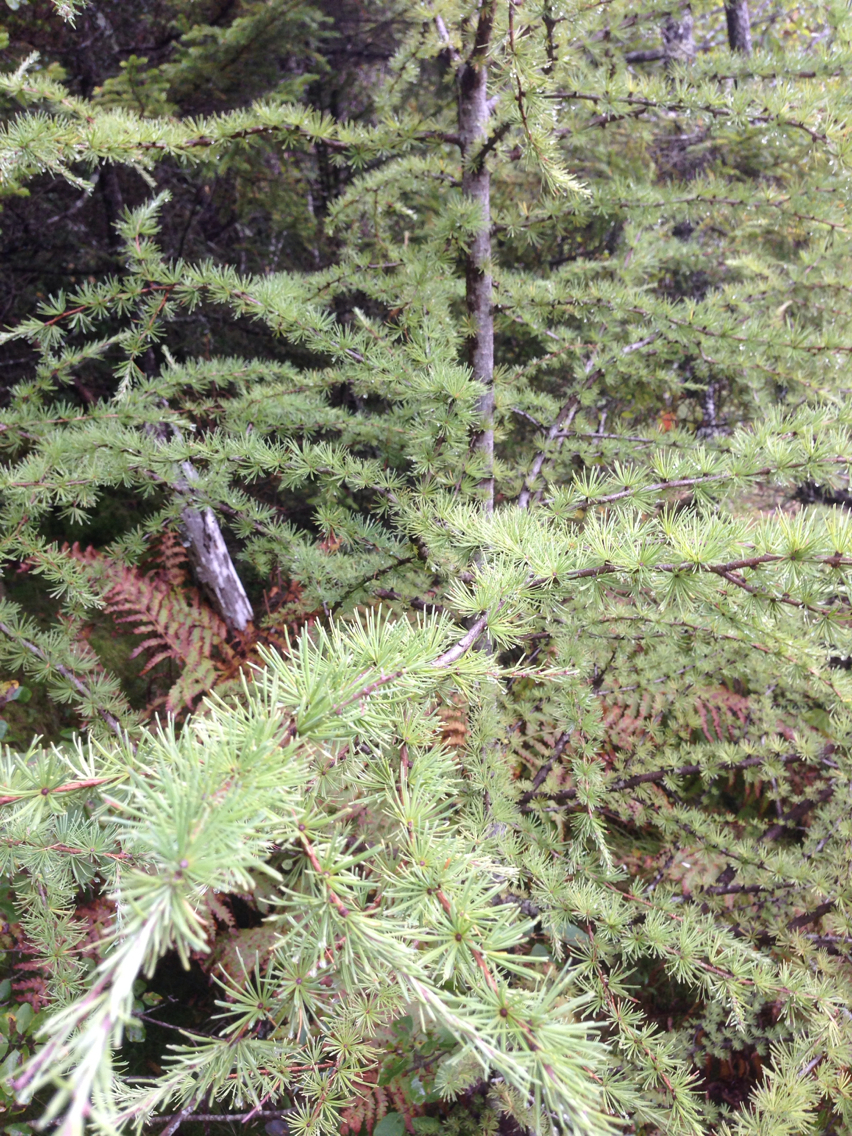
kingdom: Plantae
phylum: Tracheophyta
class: Pinopsida
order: Pinales
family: Pinaceae
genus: Larix
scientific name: Larix laricina
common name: American larch
